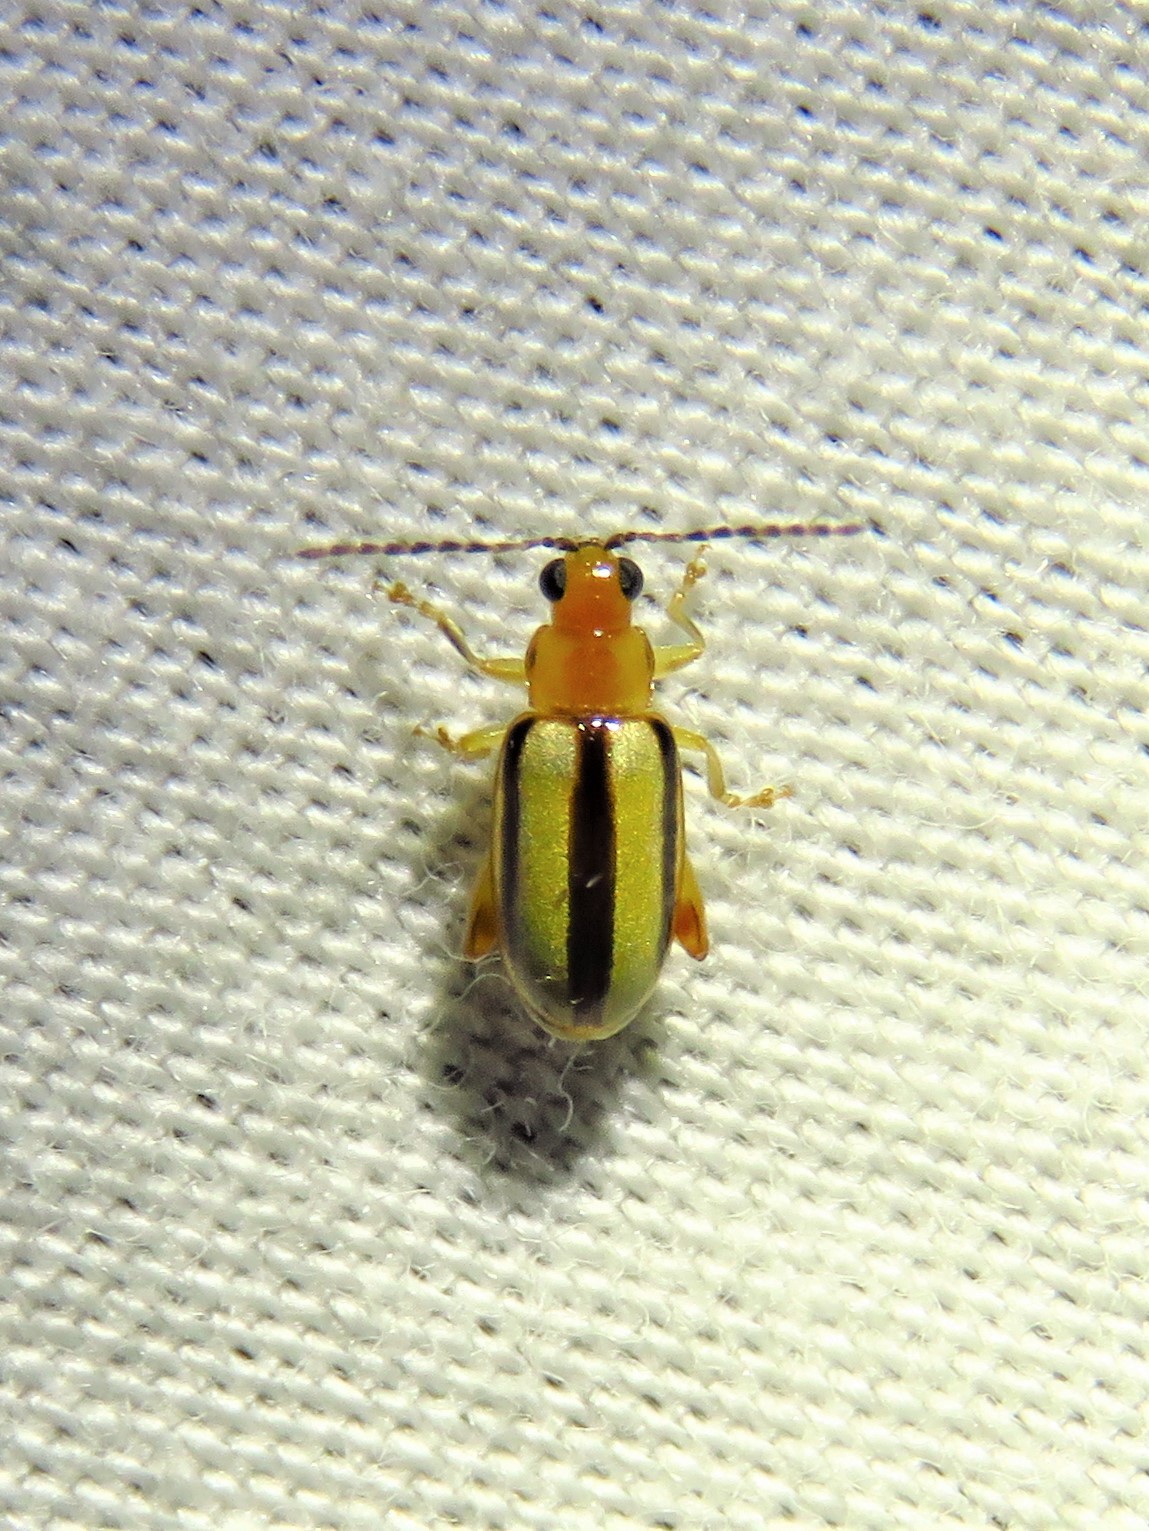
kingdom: Animalia
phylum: Arthropoda
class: Insecta
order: Coleoptera
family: Chrysomelidae
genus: Systena
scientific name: Systena gracilenta
